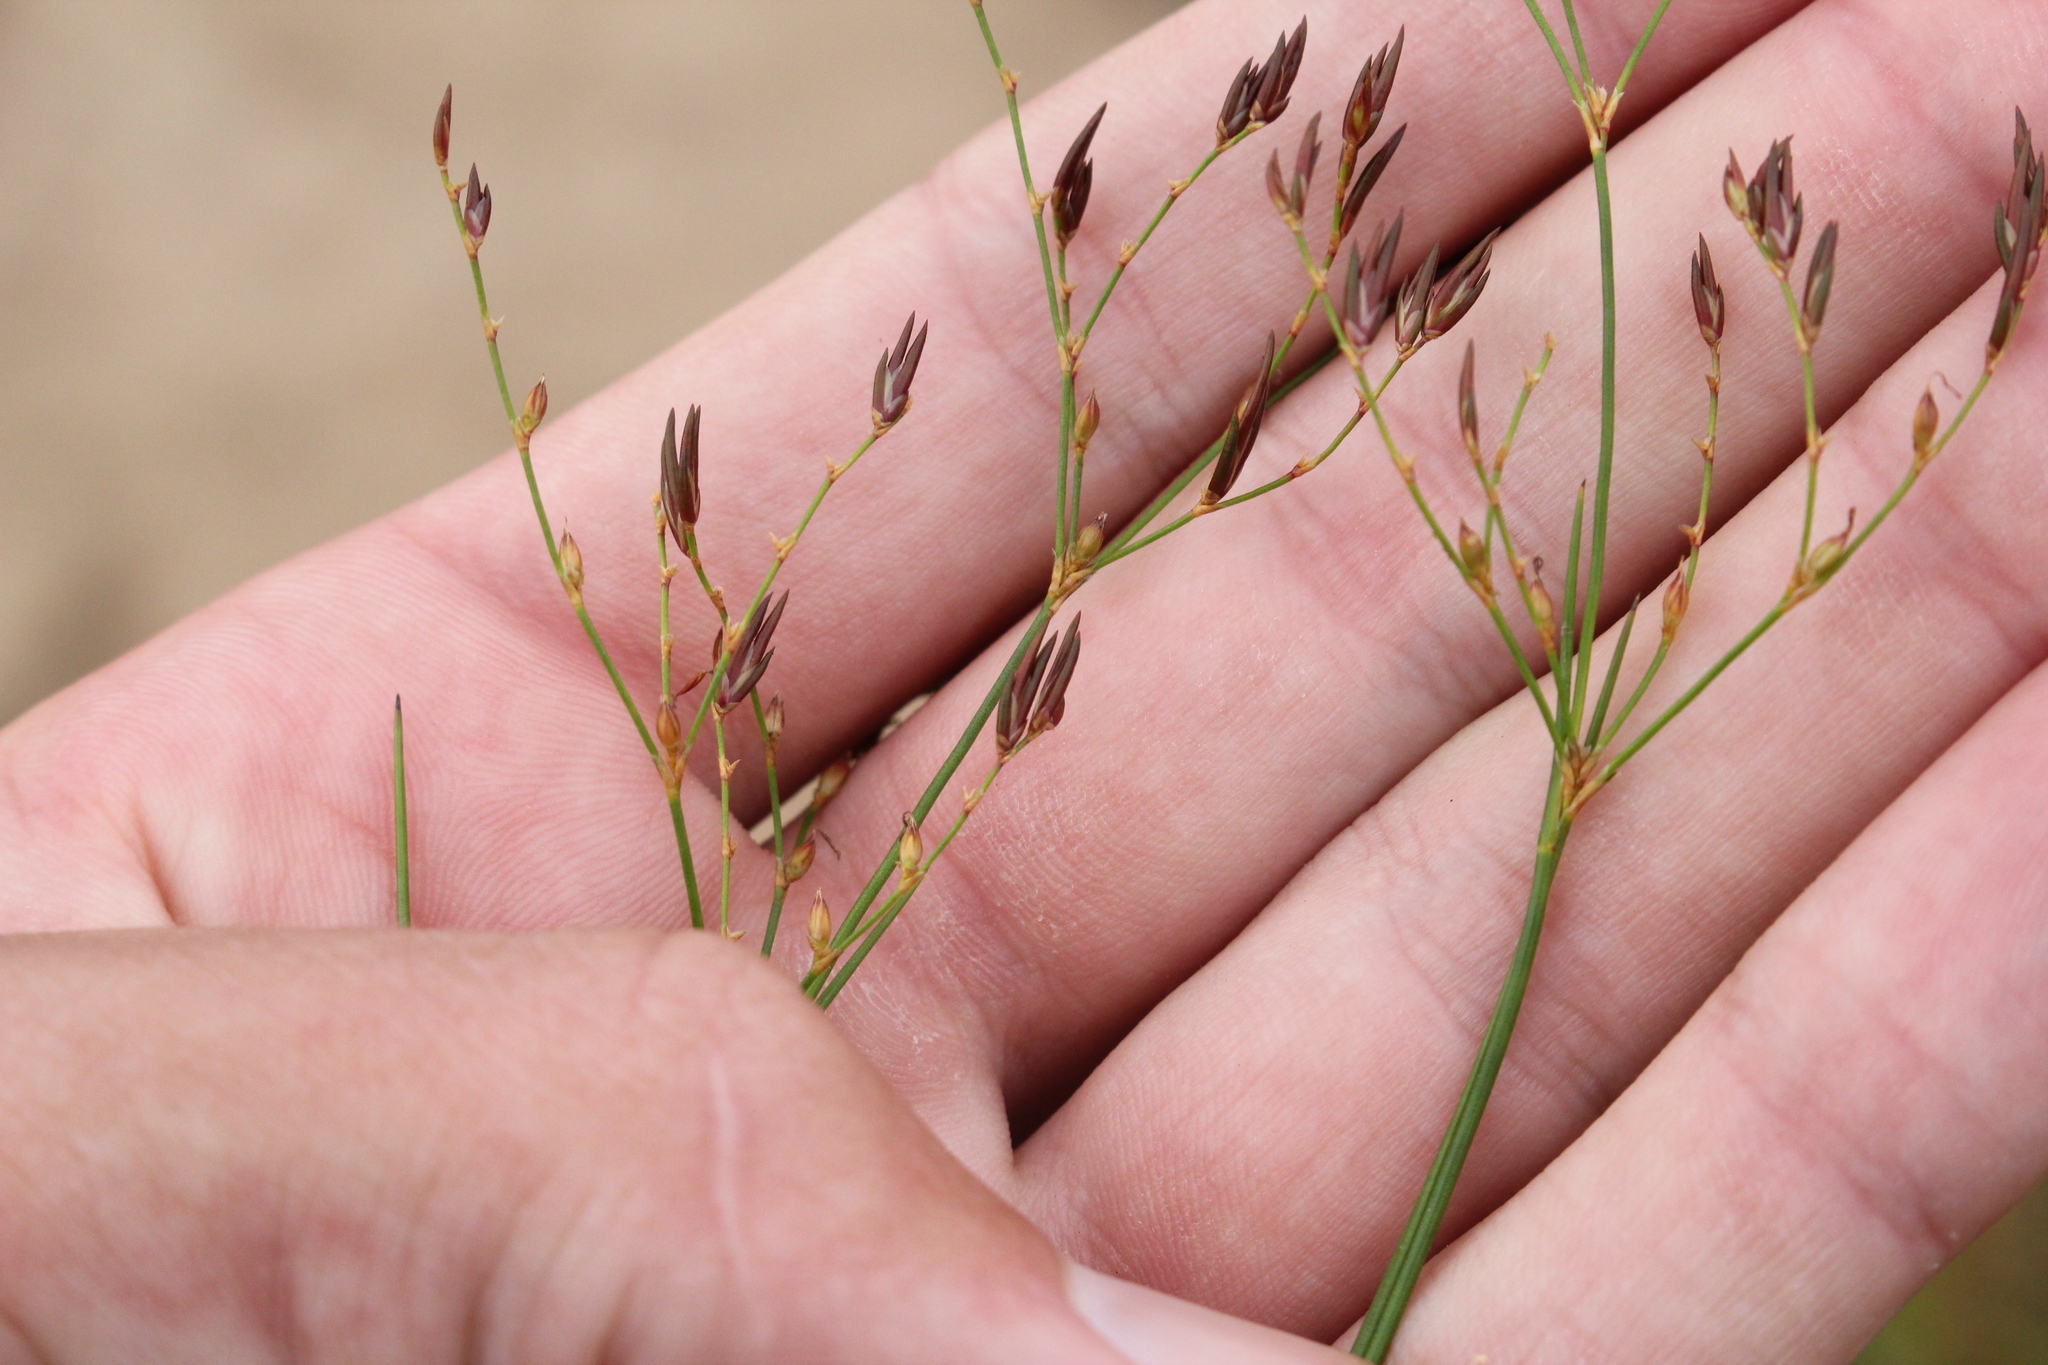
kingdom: Plantae
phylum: Tracheophyta
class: Liliopsida
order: Poales
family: Juncaceae
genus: Juncus
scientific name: Juncus pelocarpus
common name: Brown-fruited rush
